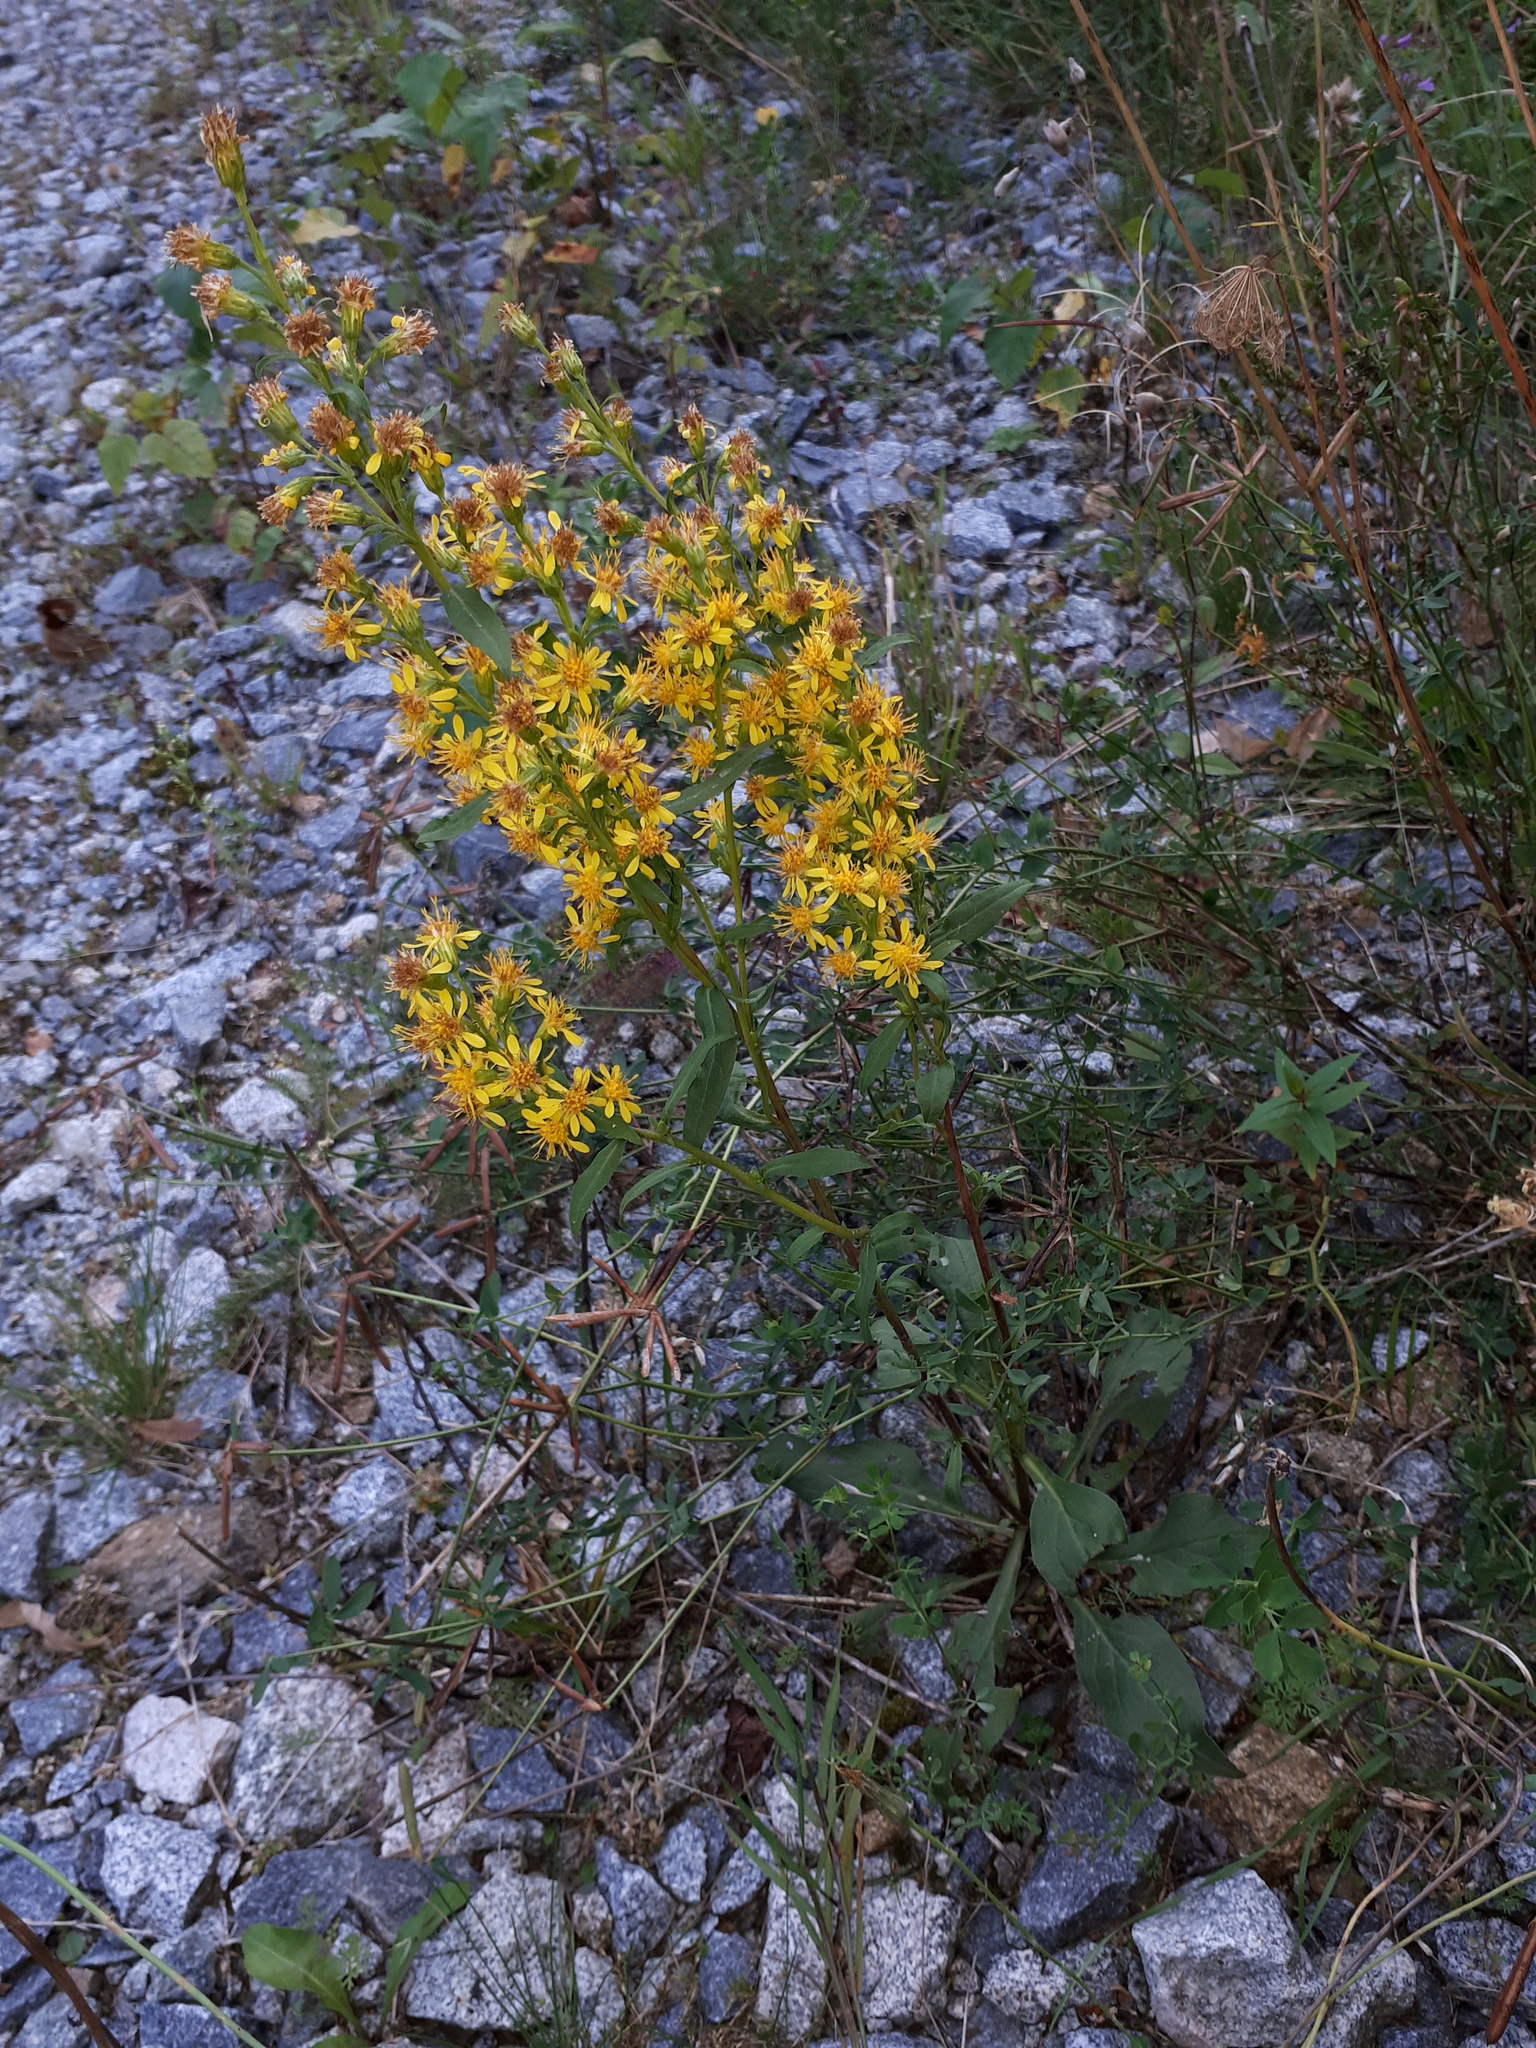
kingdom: Plantae
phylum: Tracheophyta
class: Magnoliopsida
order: Asterales
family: Asteraceae
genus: Solidago
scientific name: Solidago virgaurea
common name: Goldenrod
